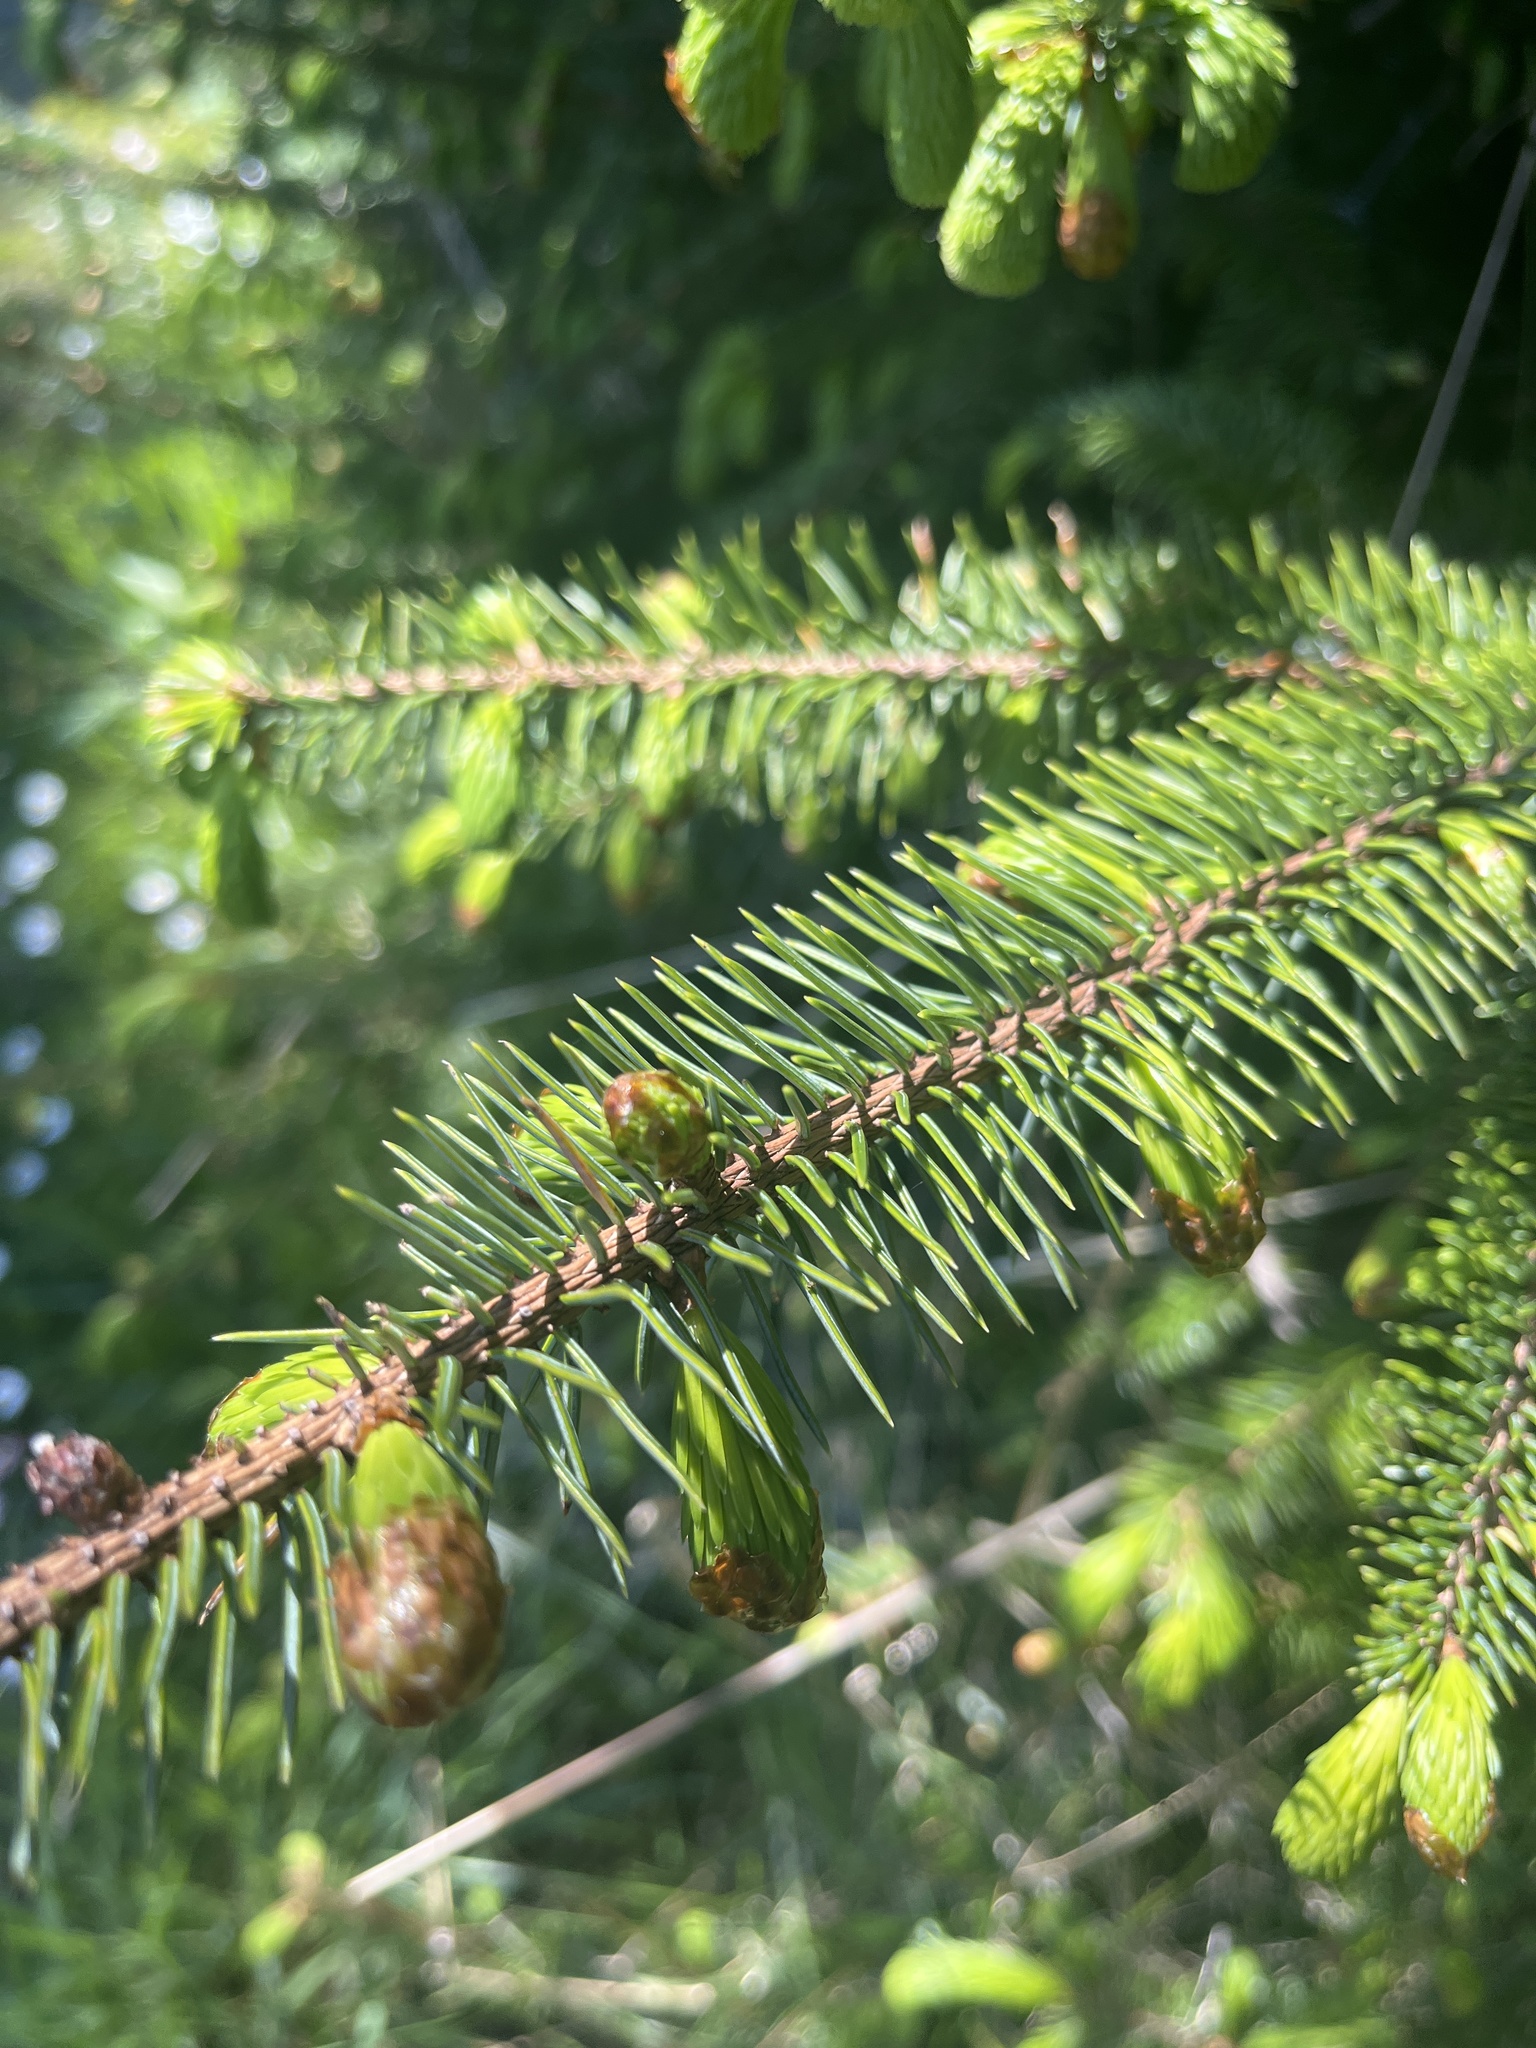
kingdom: Plantae
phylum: Tracheophyta
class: Pinopsida
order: Pinales
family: Pinaceae
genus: Picea
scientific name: Picea sitchensis
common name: Sitka spruce
